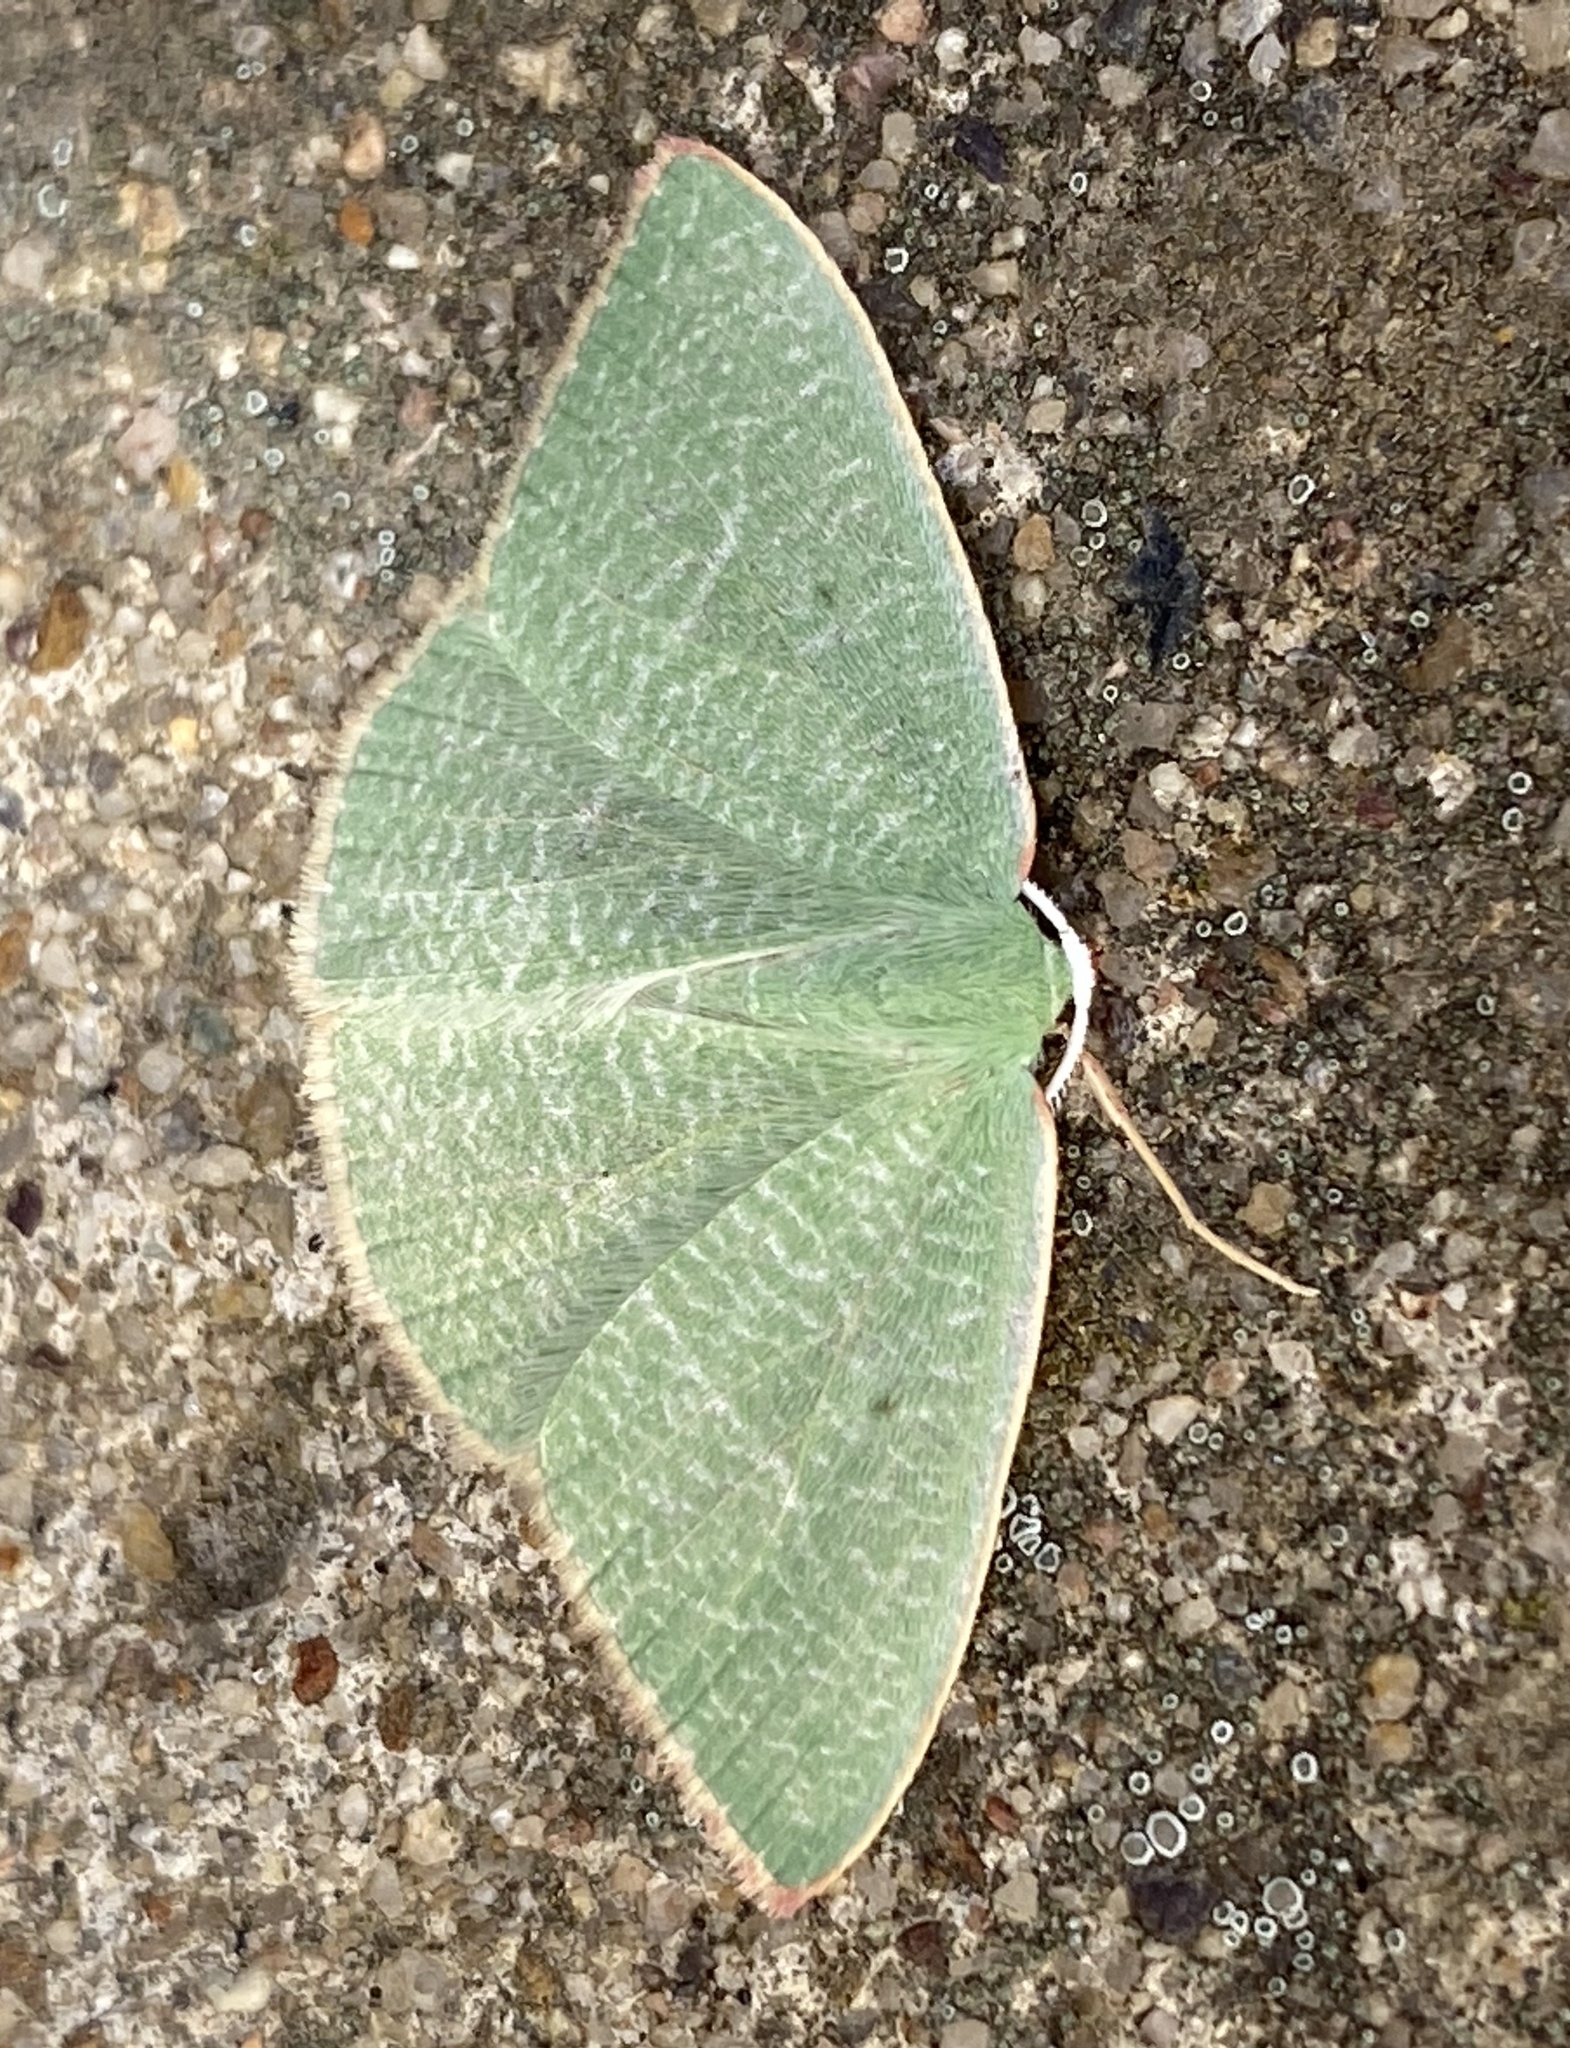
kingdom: Animalia
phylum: Arthropoda
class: Insecta
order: Lepidoptera
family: Geometridae
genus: Nemoria
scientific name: Nemoria pistaciaria
